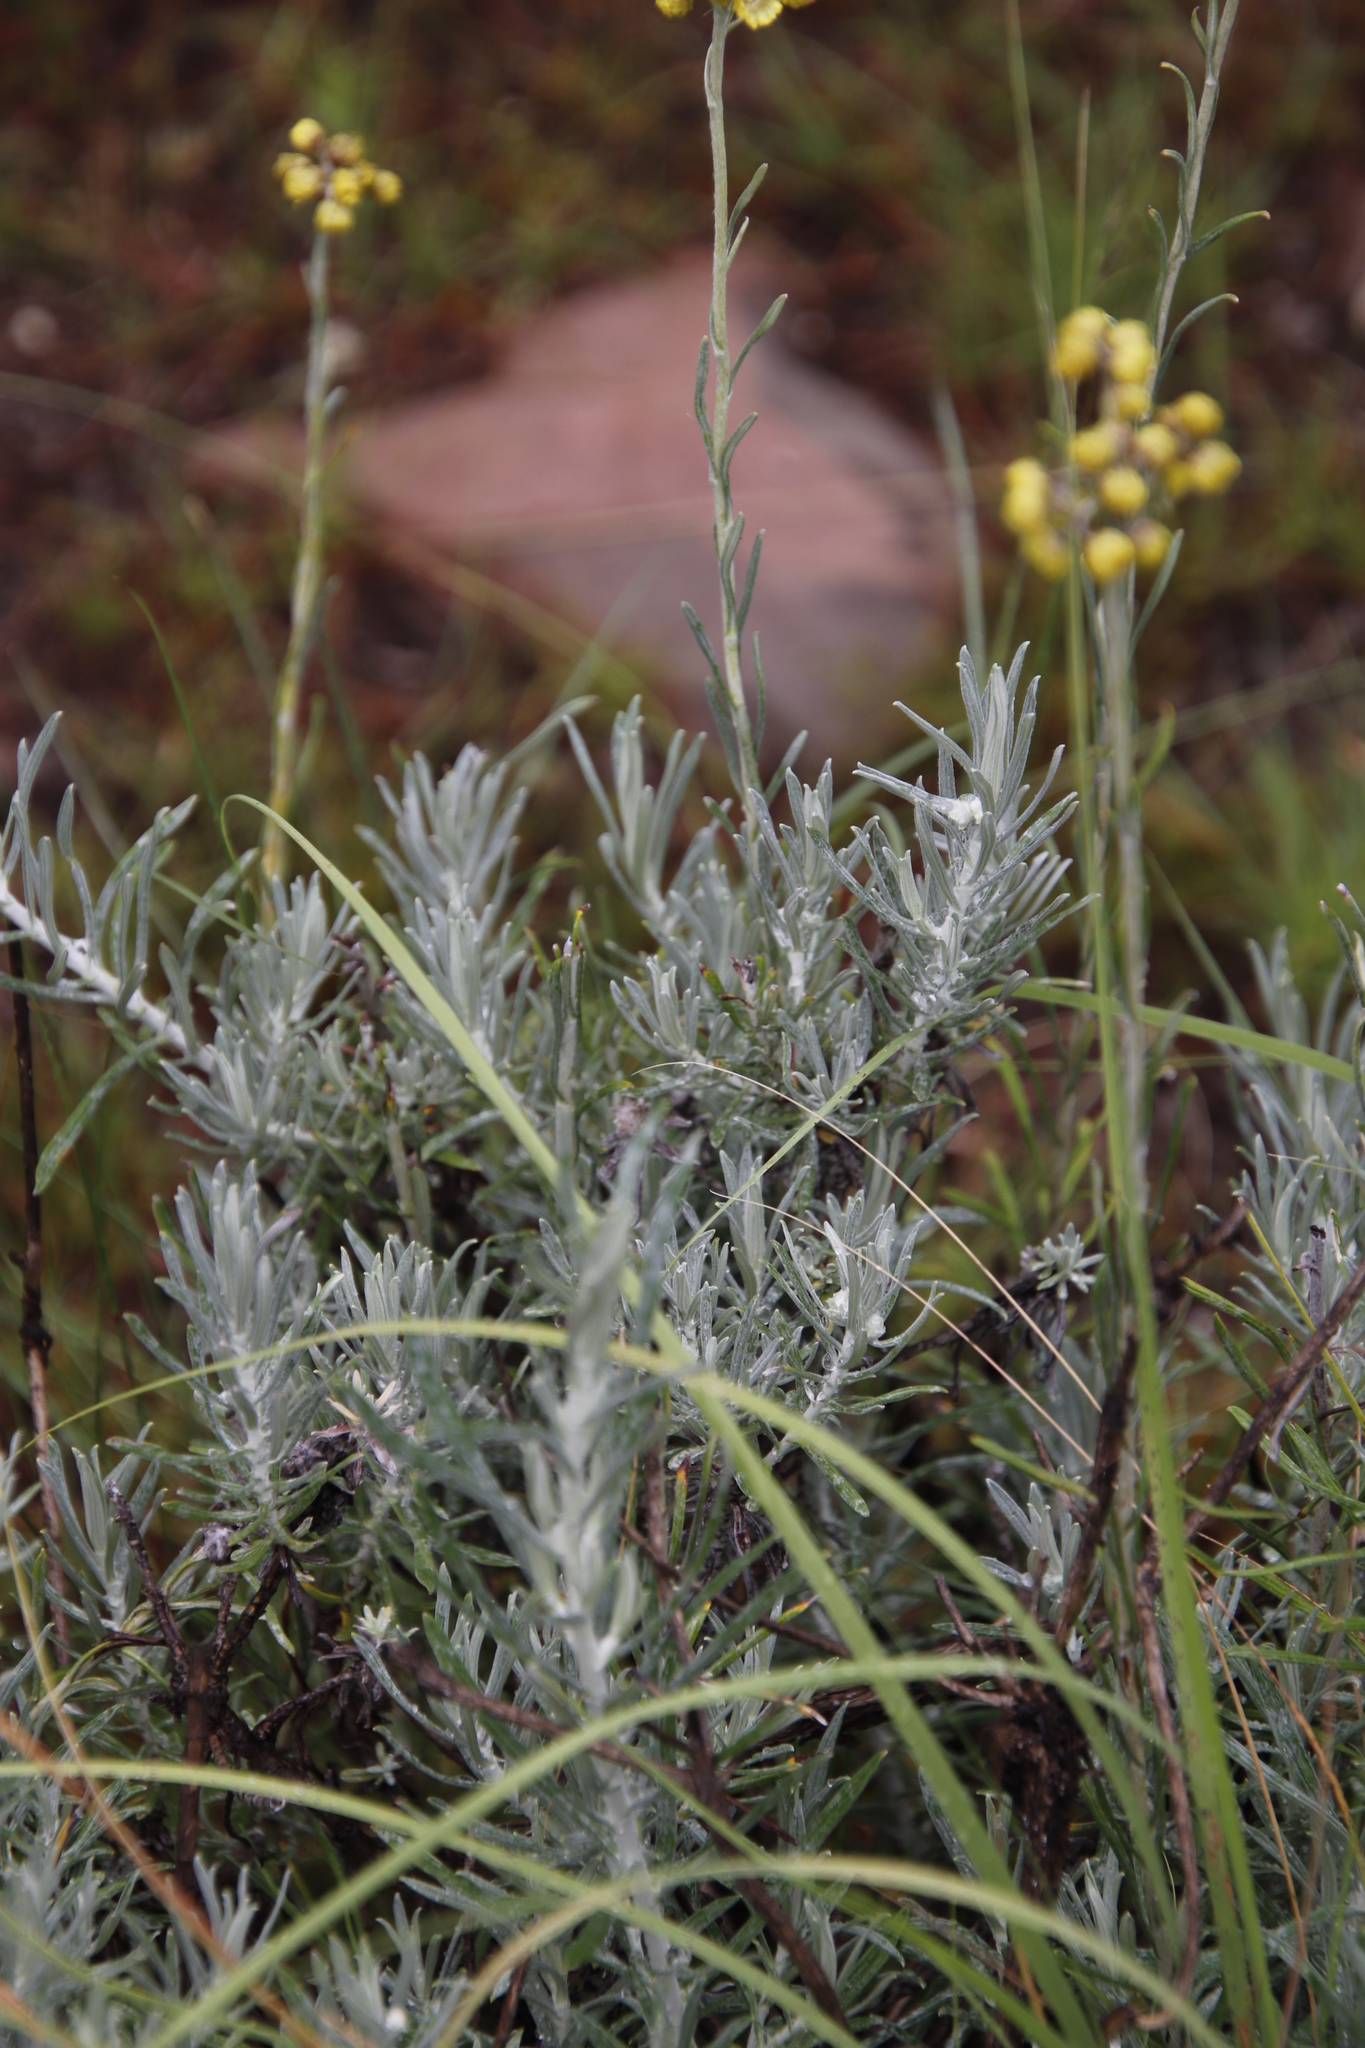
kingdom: Plantae
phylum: Tracheophyta
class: Magnoliopsida
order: Asterales
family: Asteraceae
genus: Helichrysum
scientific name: Helichrysum splendidum
